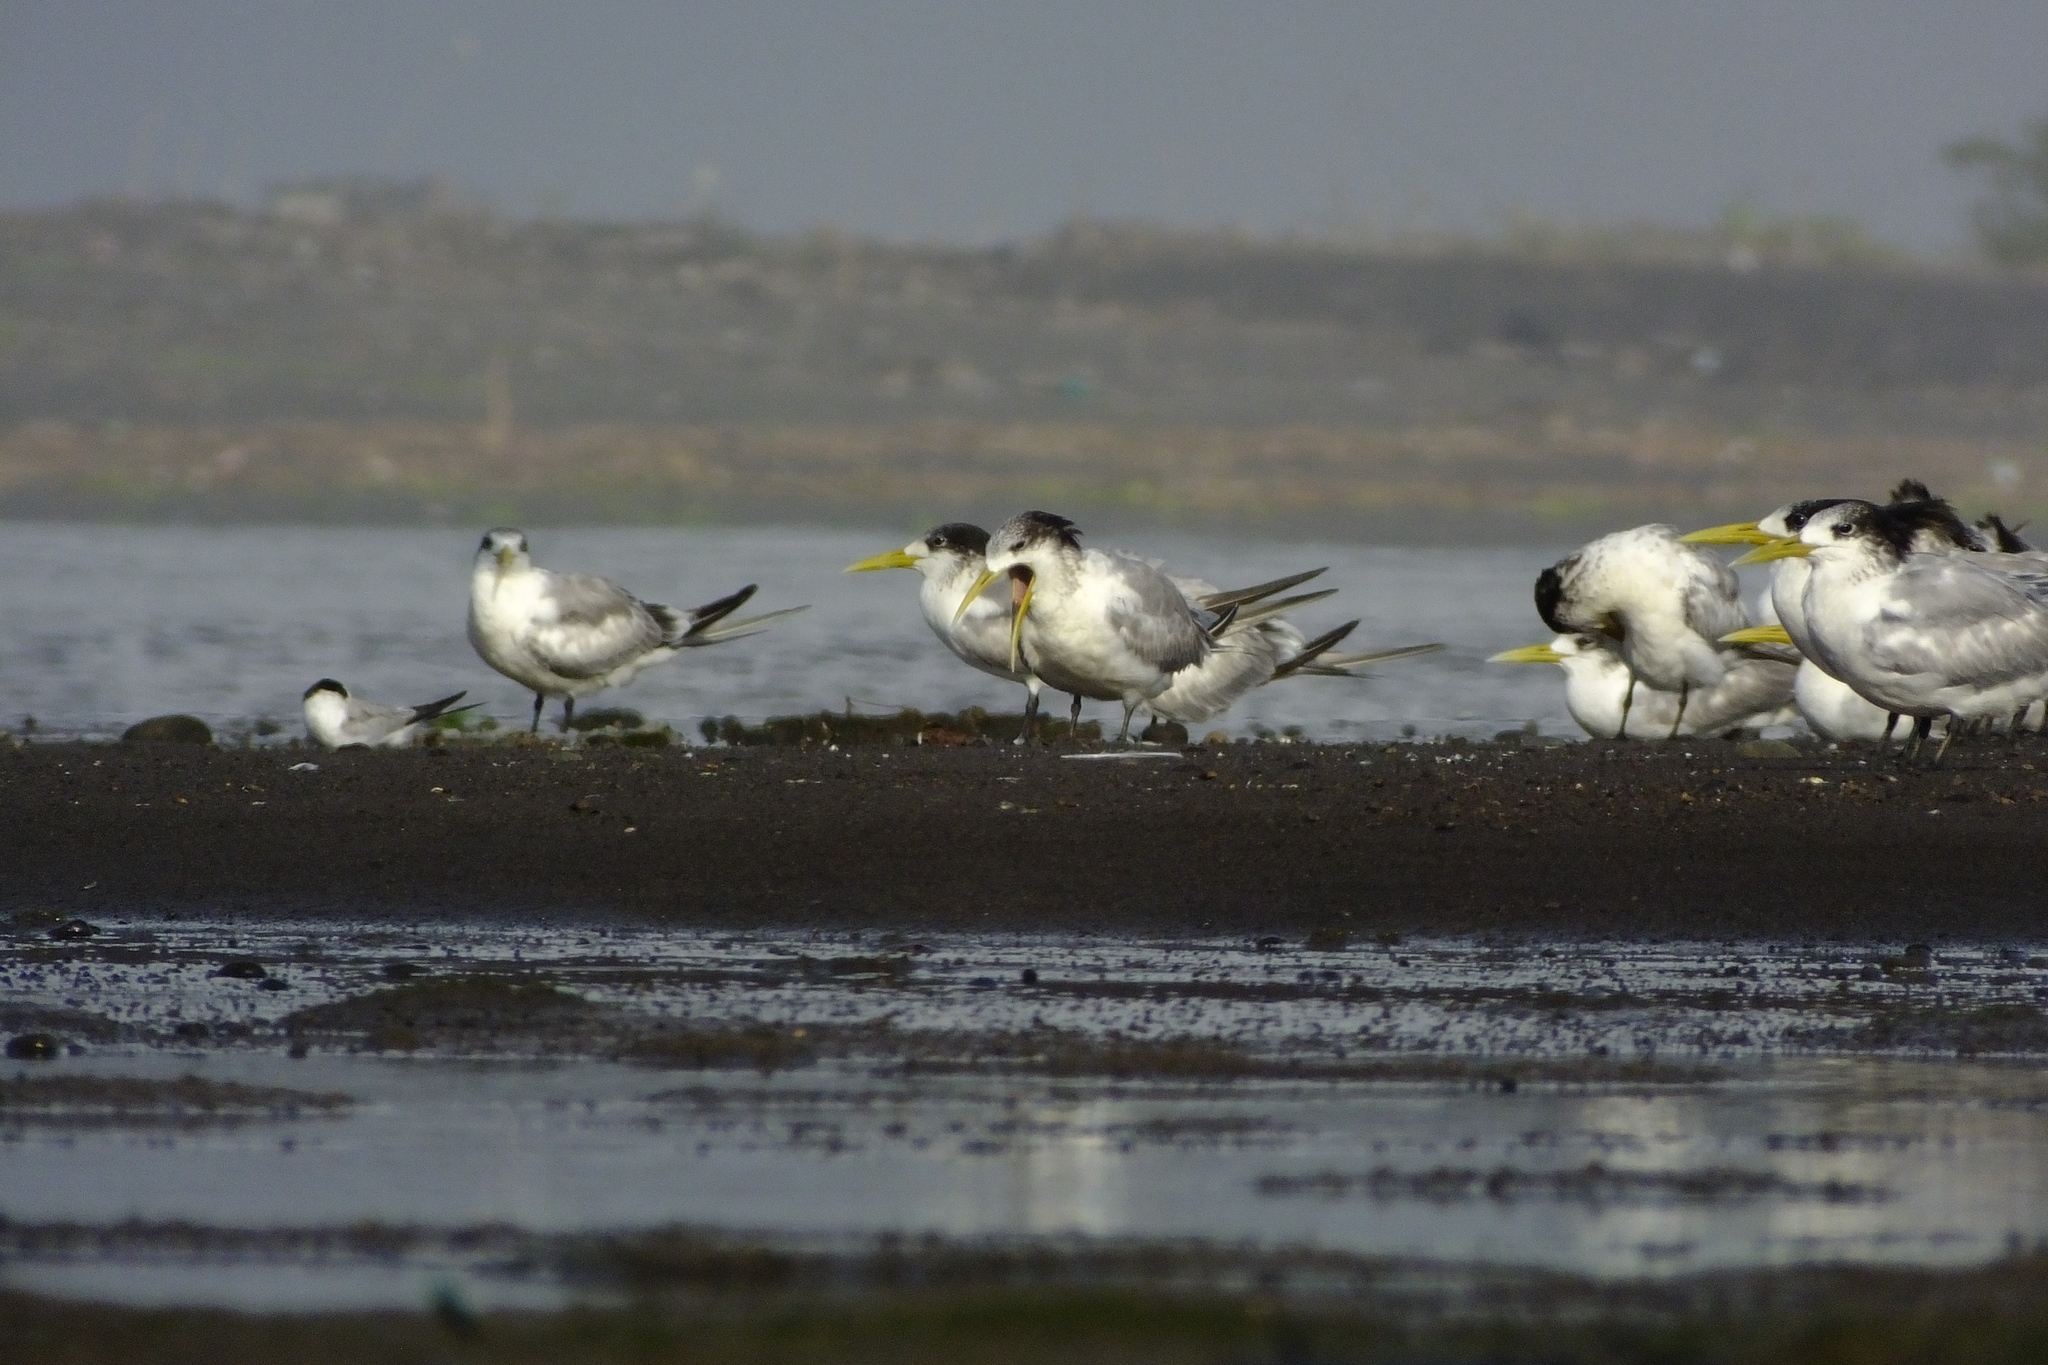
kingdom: Animalia
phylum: Chordata
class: Aves
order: Charadriiformes
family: Laridae
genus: Thalasseus
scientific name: Thalasseus bergii
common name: Greater crested tern
